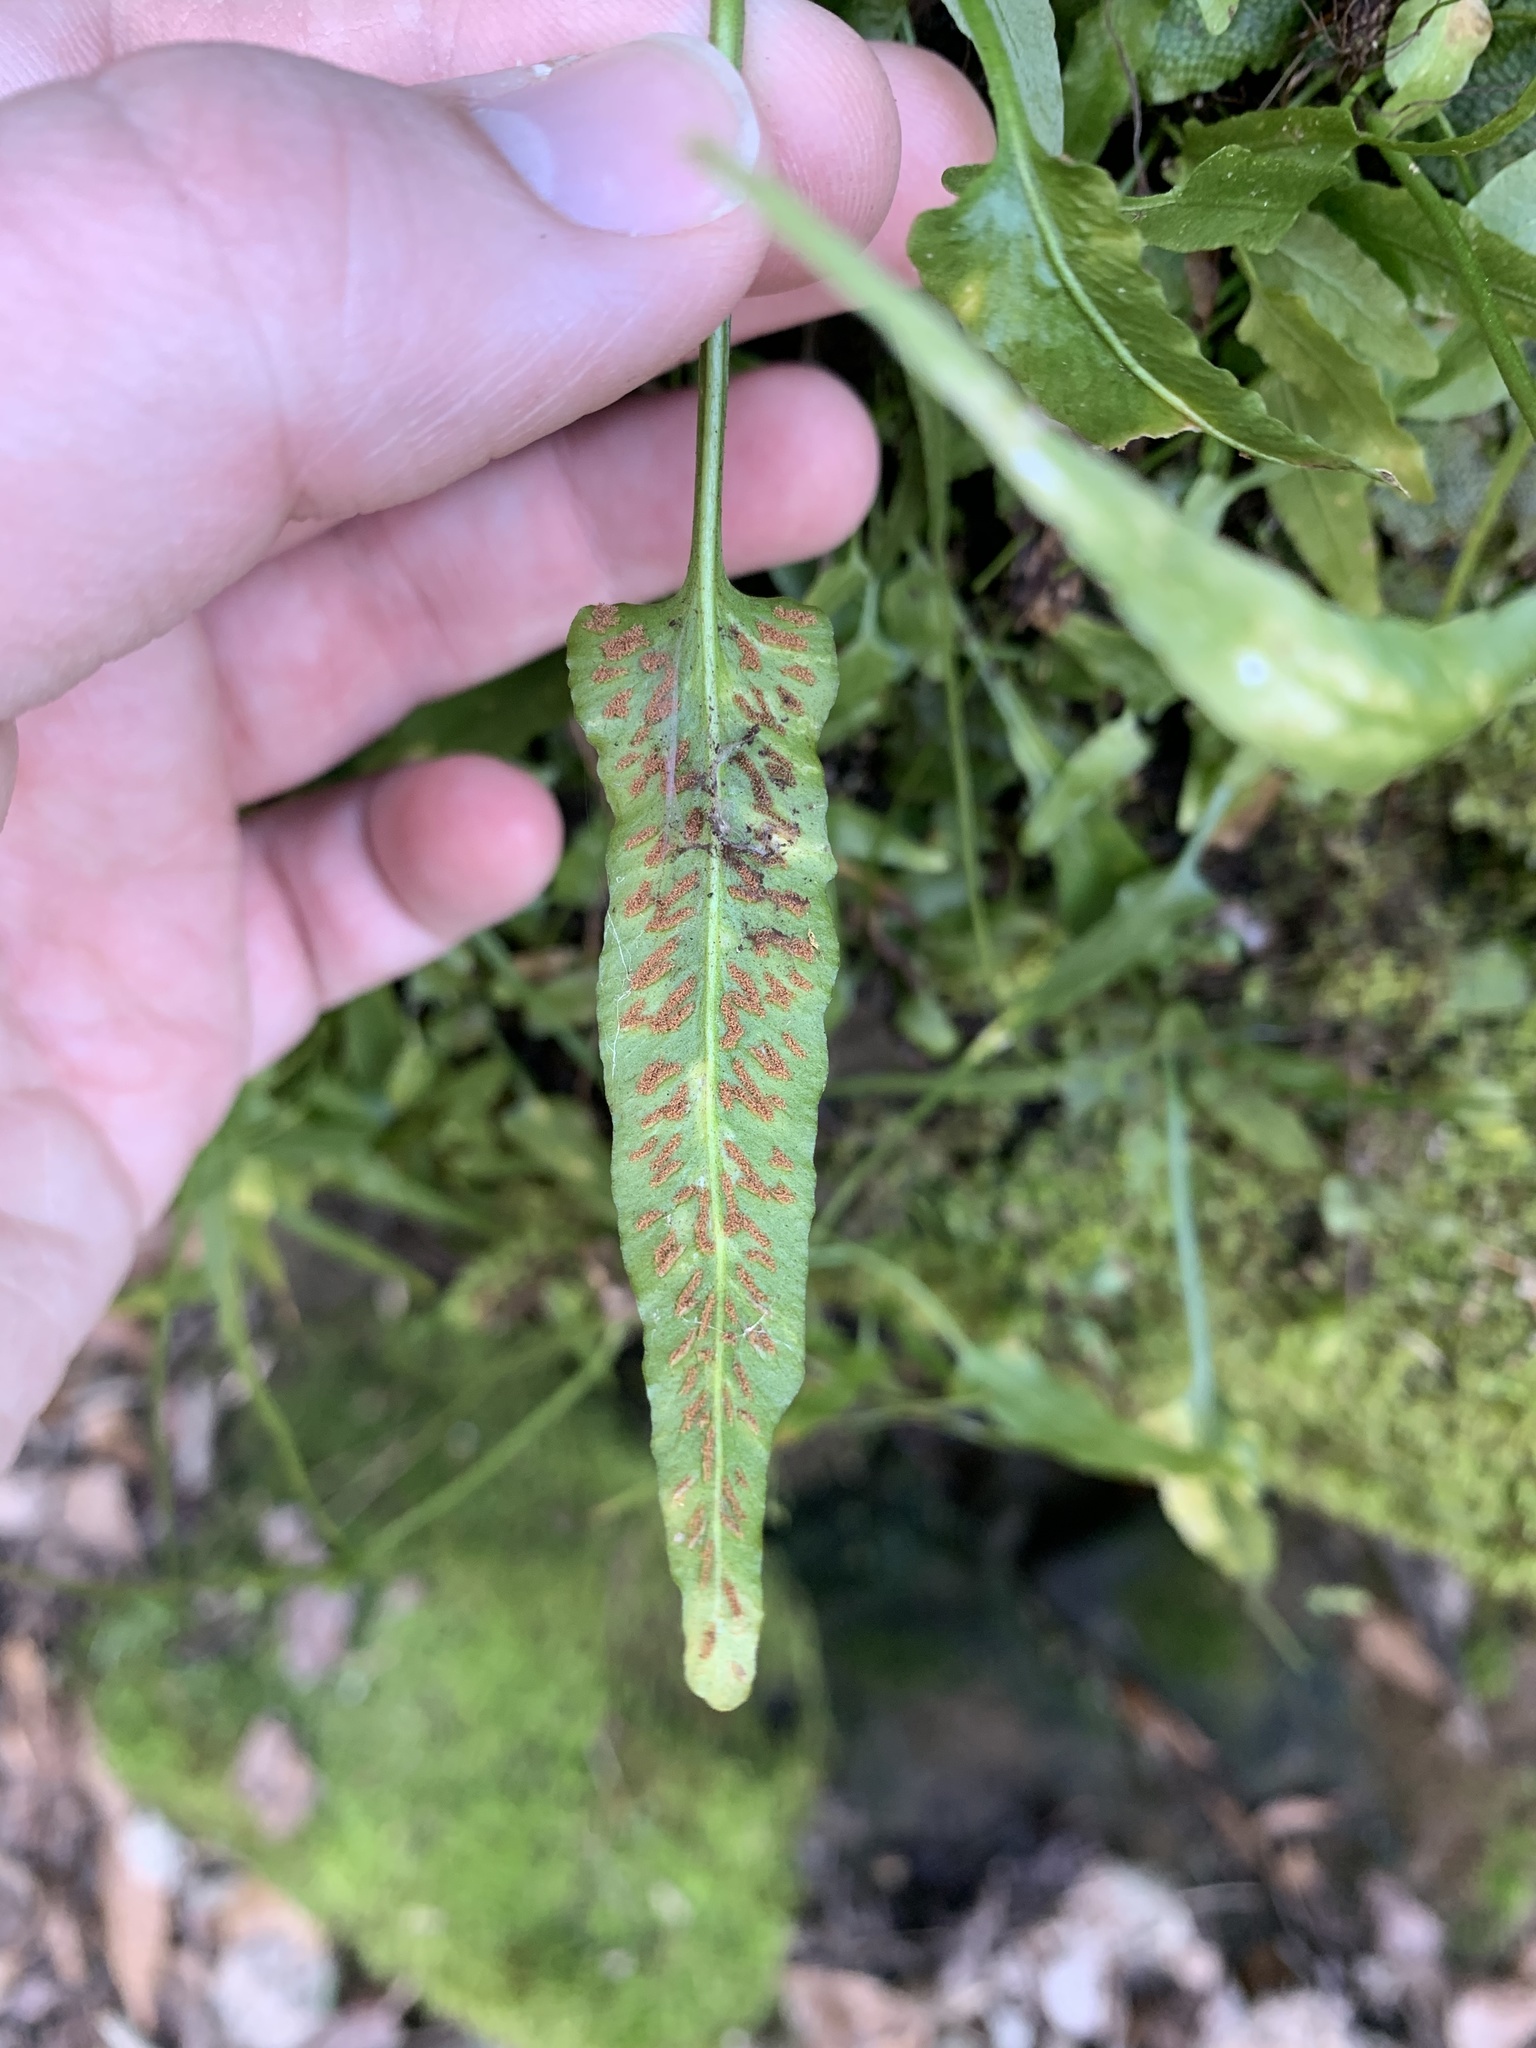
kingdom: Plantae
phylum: Tracheophyta
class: Polypodiopsida
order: Polypodiales
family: Aspleniaceae
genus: Asplenium
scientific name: Asplenium rhizophyllum
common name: Walking fern
